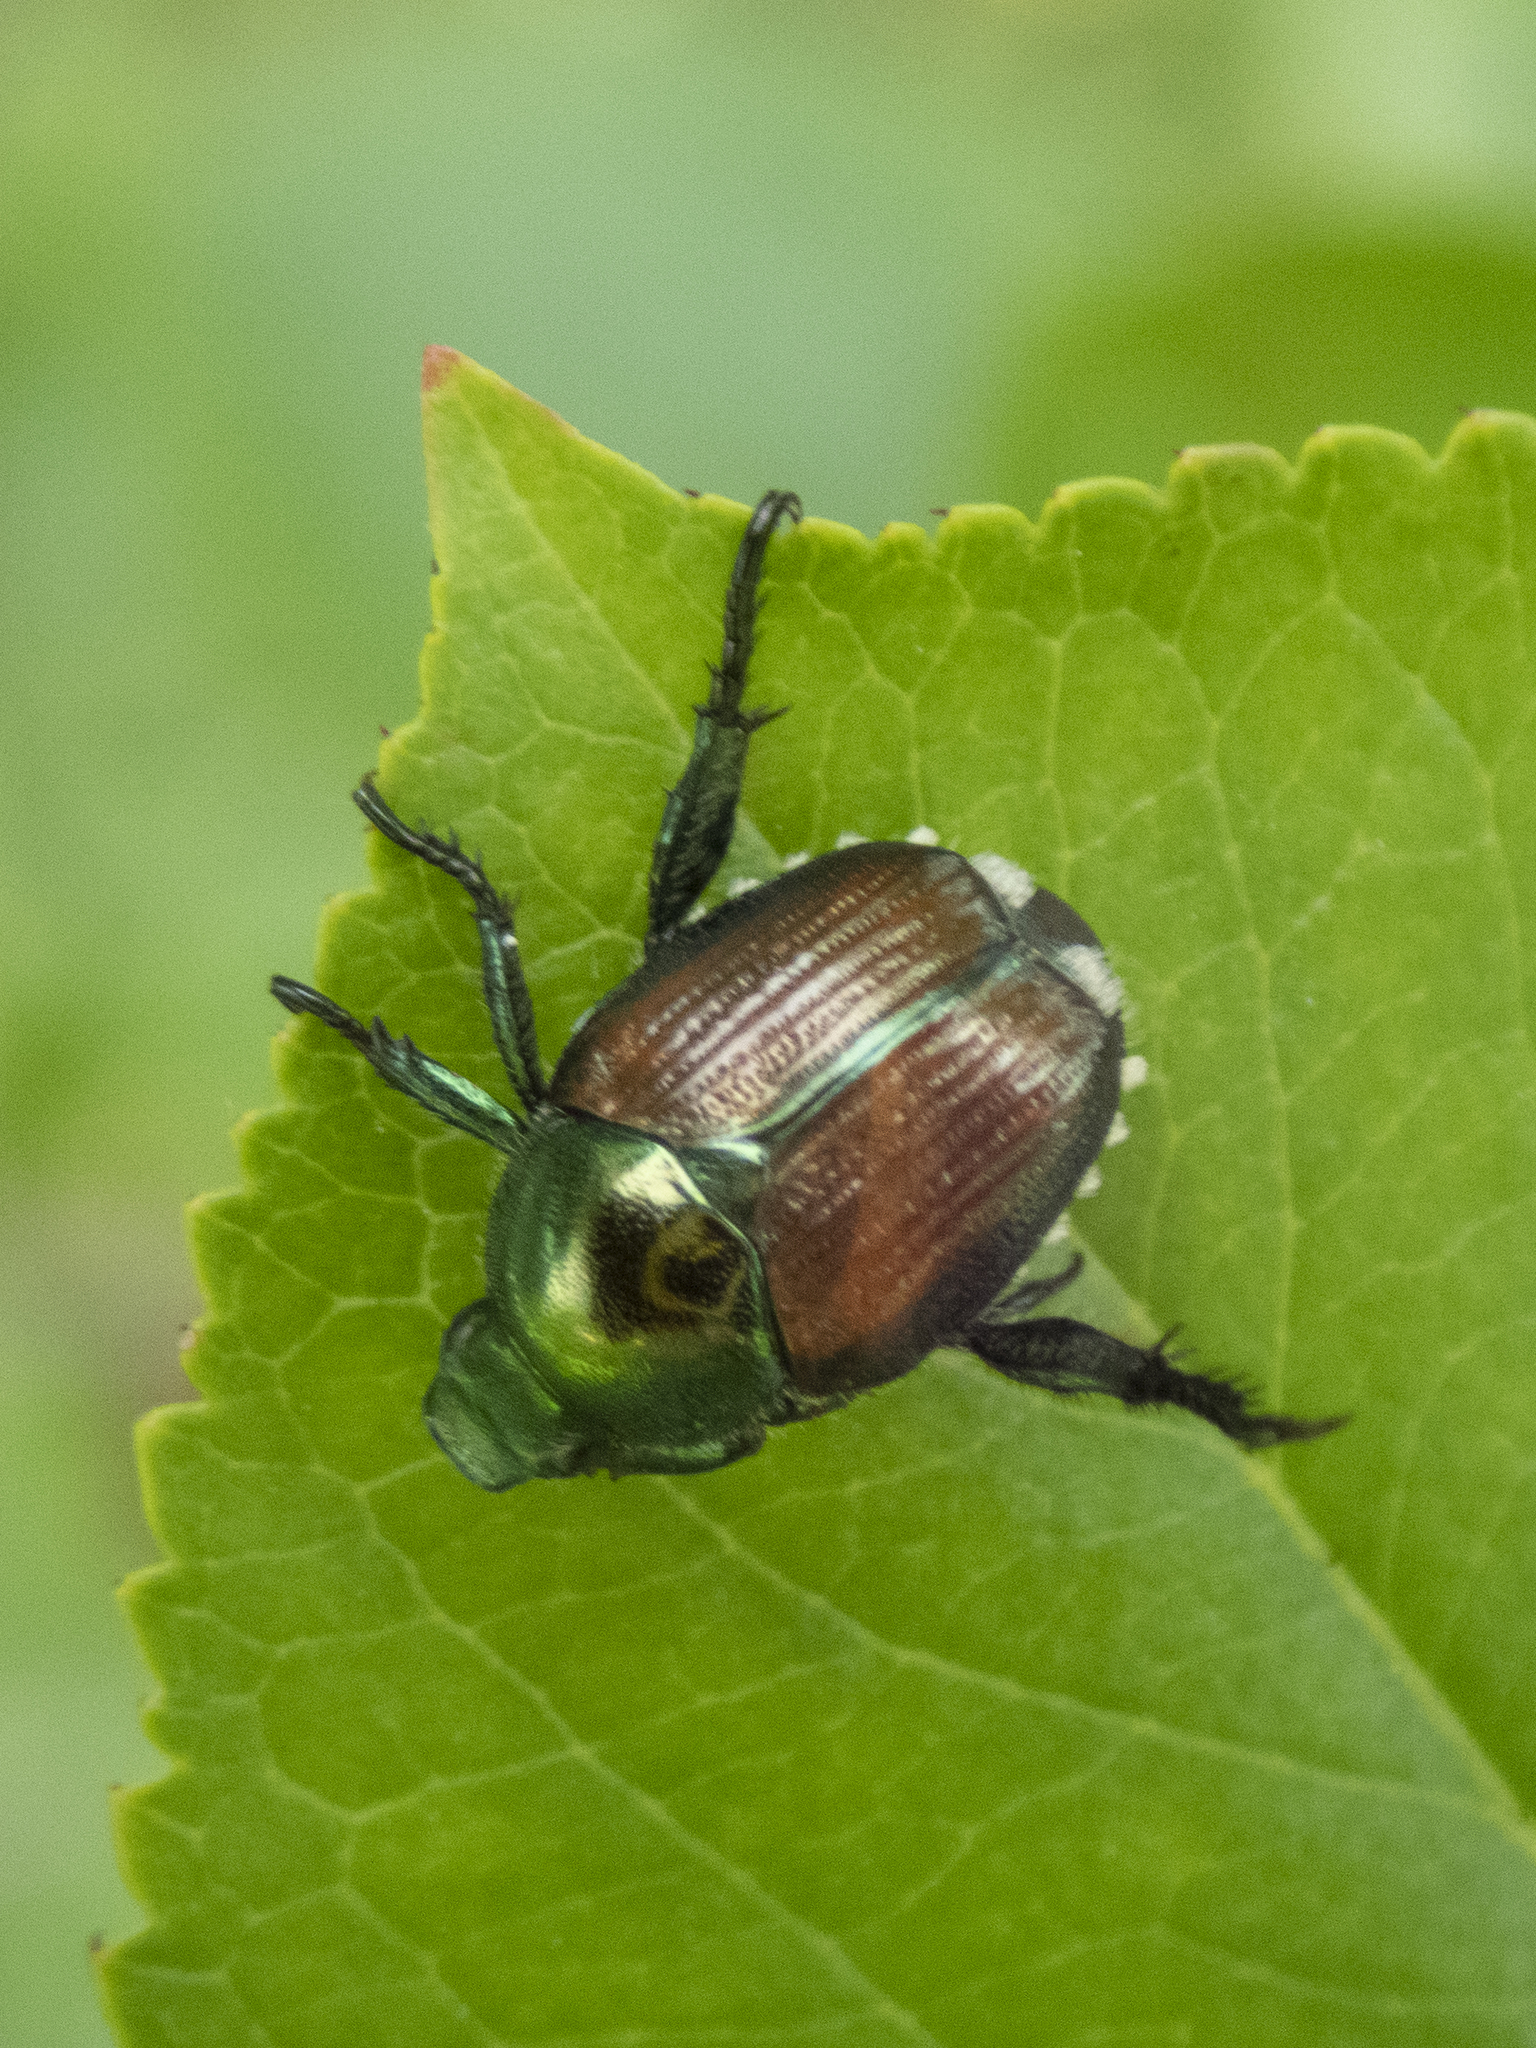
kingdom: Animalia
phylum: Arthropoda
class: Insecta
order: Coleoptera
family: Scarabaeidae
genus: Popillia
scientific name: Popillia japonica
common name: Japanese beetle
